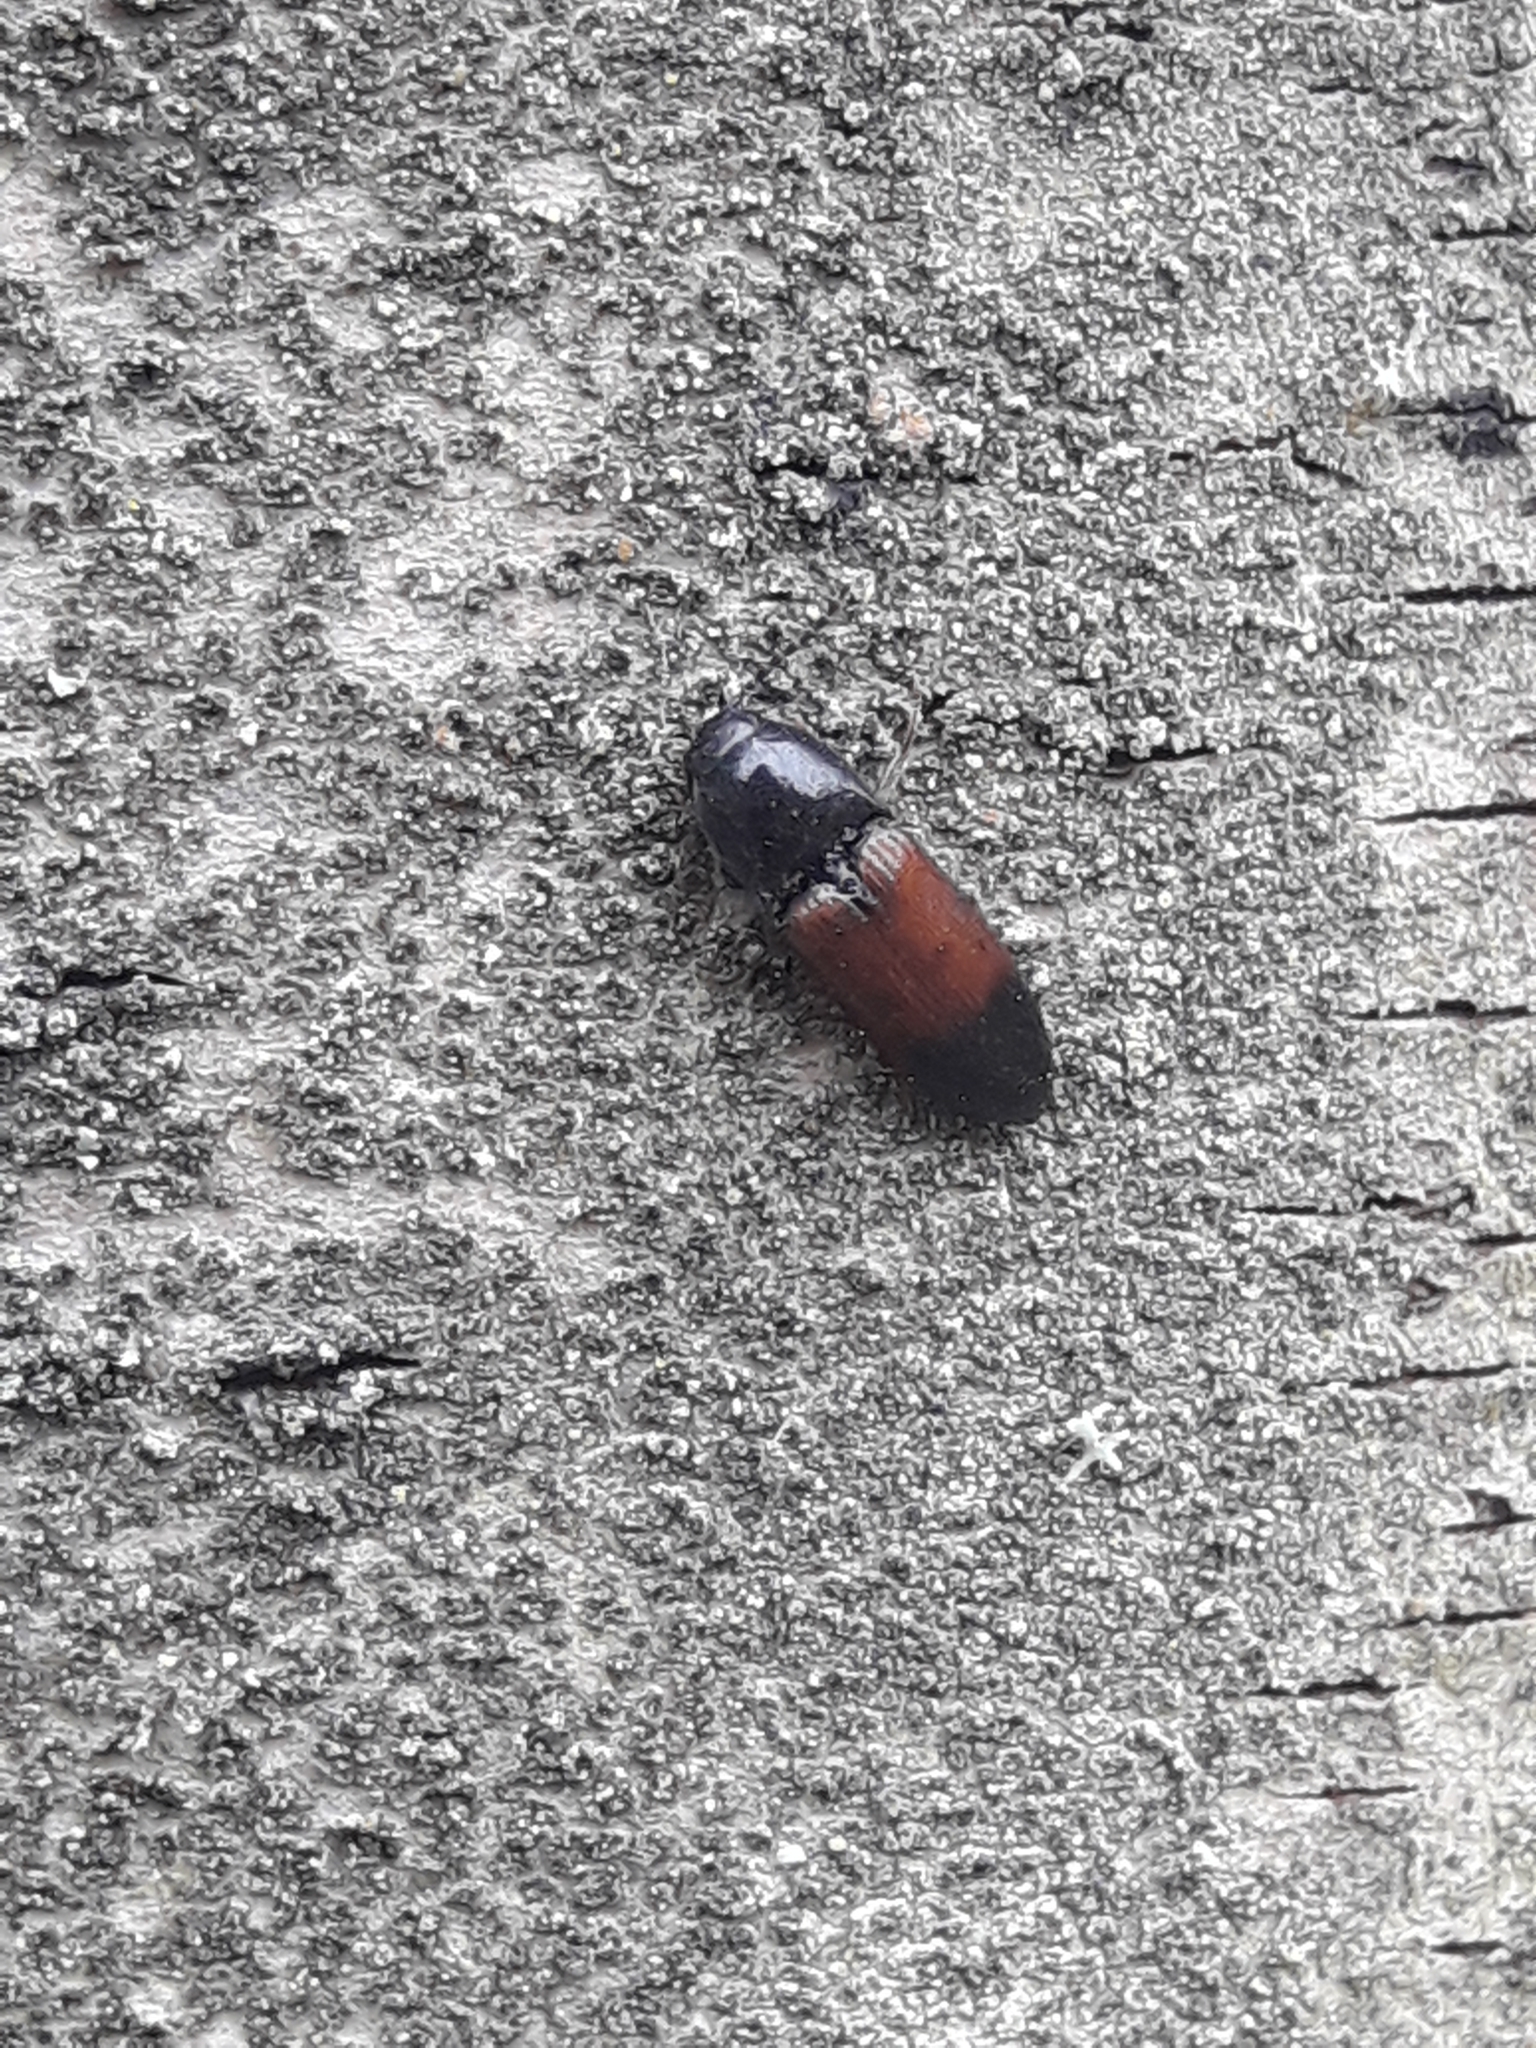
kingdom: Animalia
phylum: Arthropoda
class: Insecta
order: Coleoptera
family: Elateridae
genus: Ampedus
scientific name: Ampedus balteatus
